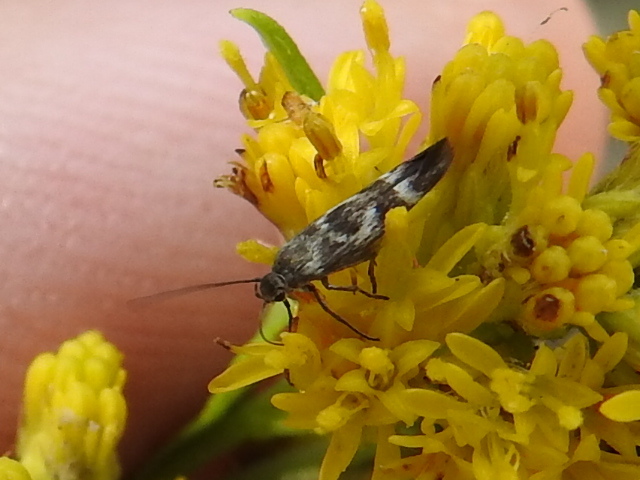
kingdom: Animalia
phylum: Arthropoda
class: Insecta
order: Lepidoptera
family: Scythrididae
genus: Scythris
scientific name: Scythris trivinctella
